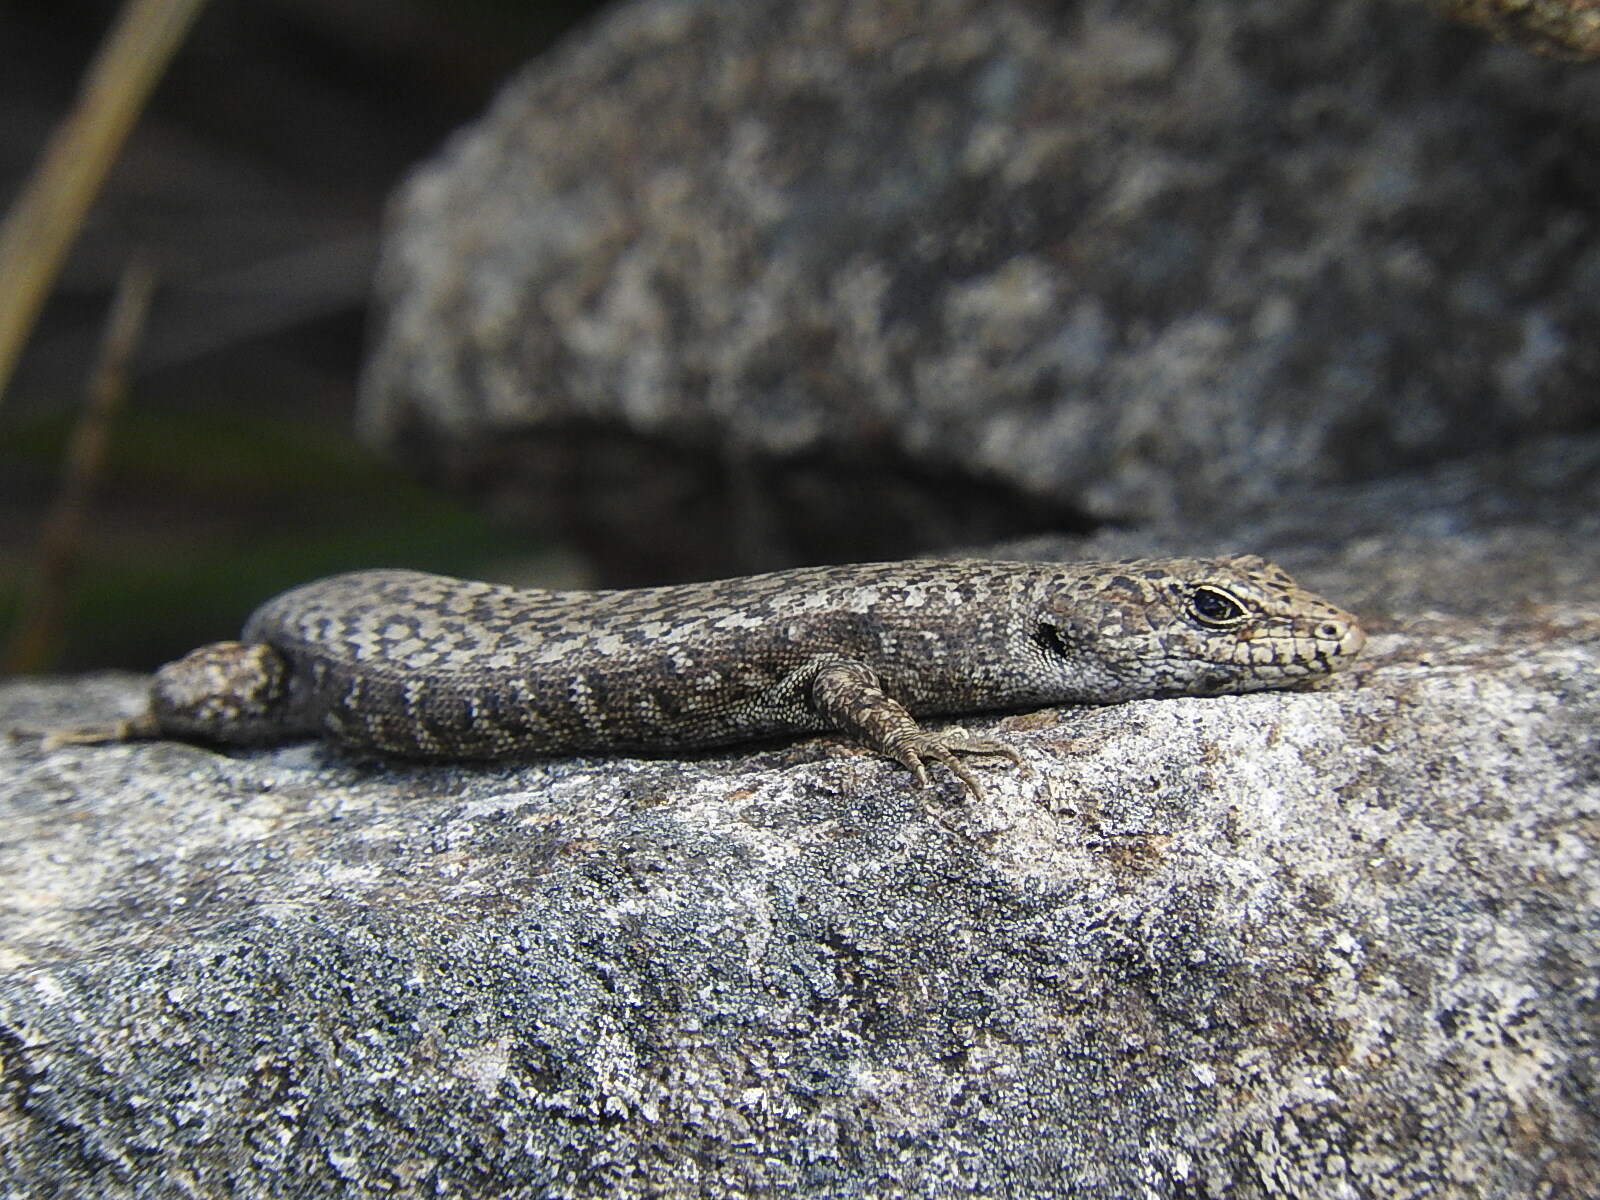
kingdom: Animalia
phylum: Chordata
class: Squamata
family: Scincidae
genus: Carinascincus
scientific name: Carinascincus ocellatus
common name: Ocellated cool-skink
